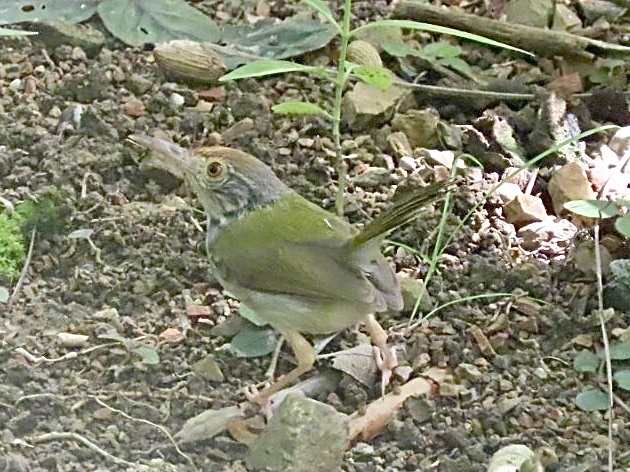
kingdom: Animalia
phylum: Chordata
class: Aves
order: Passeriformes
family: Cisticolidae
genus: Orthotomus
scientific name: Orthotomus sutorius
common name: Common tailorbird
